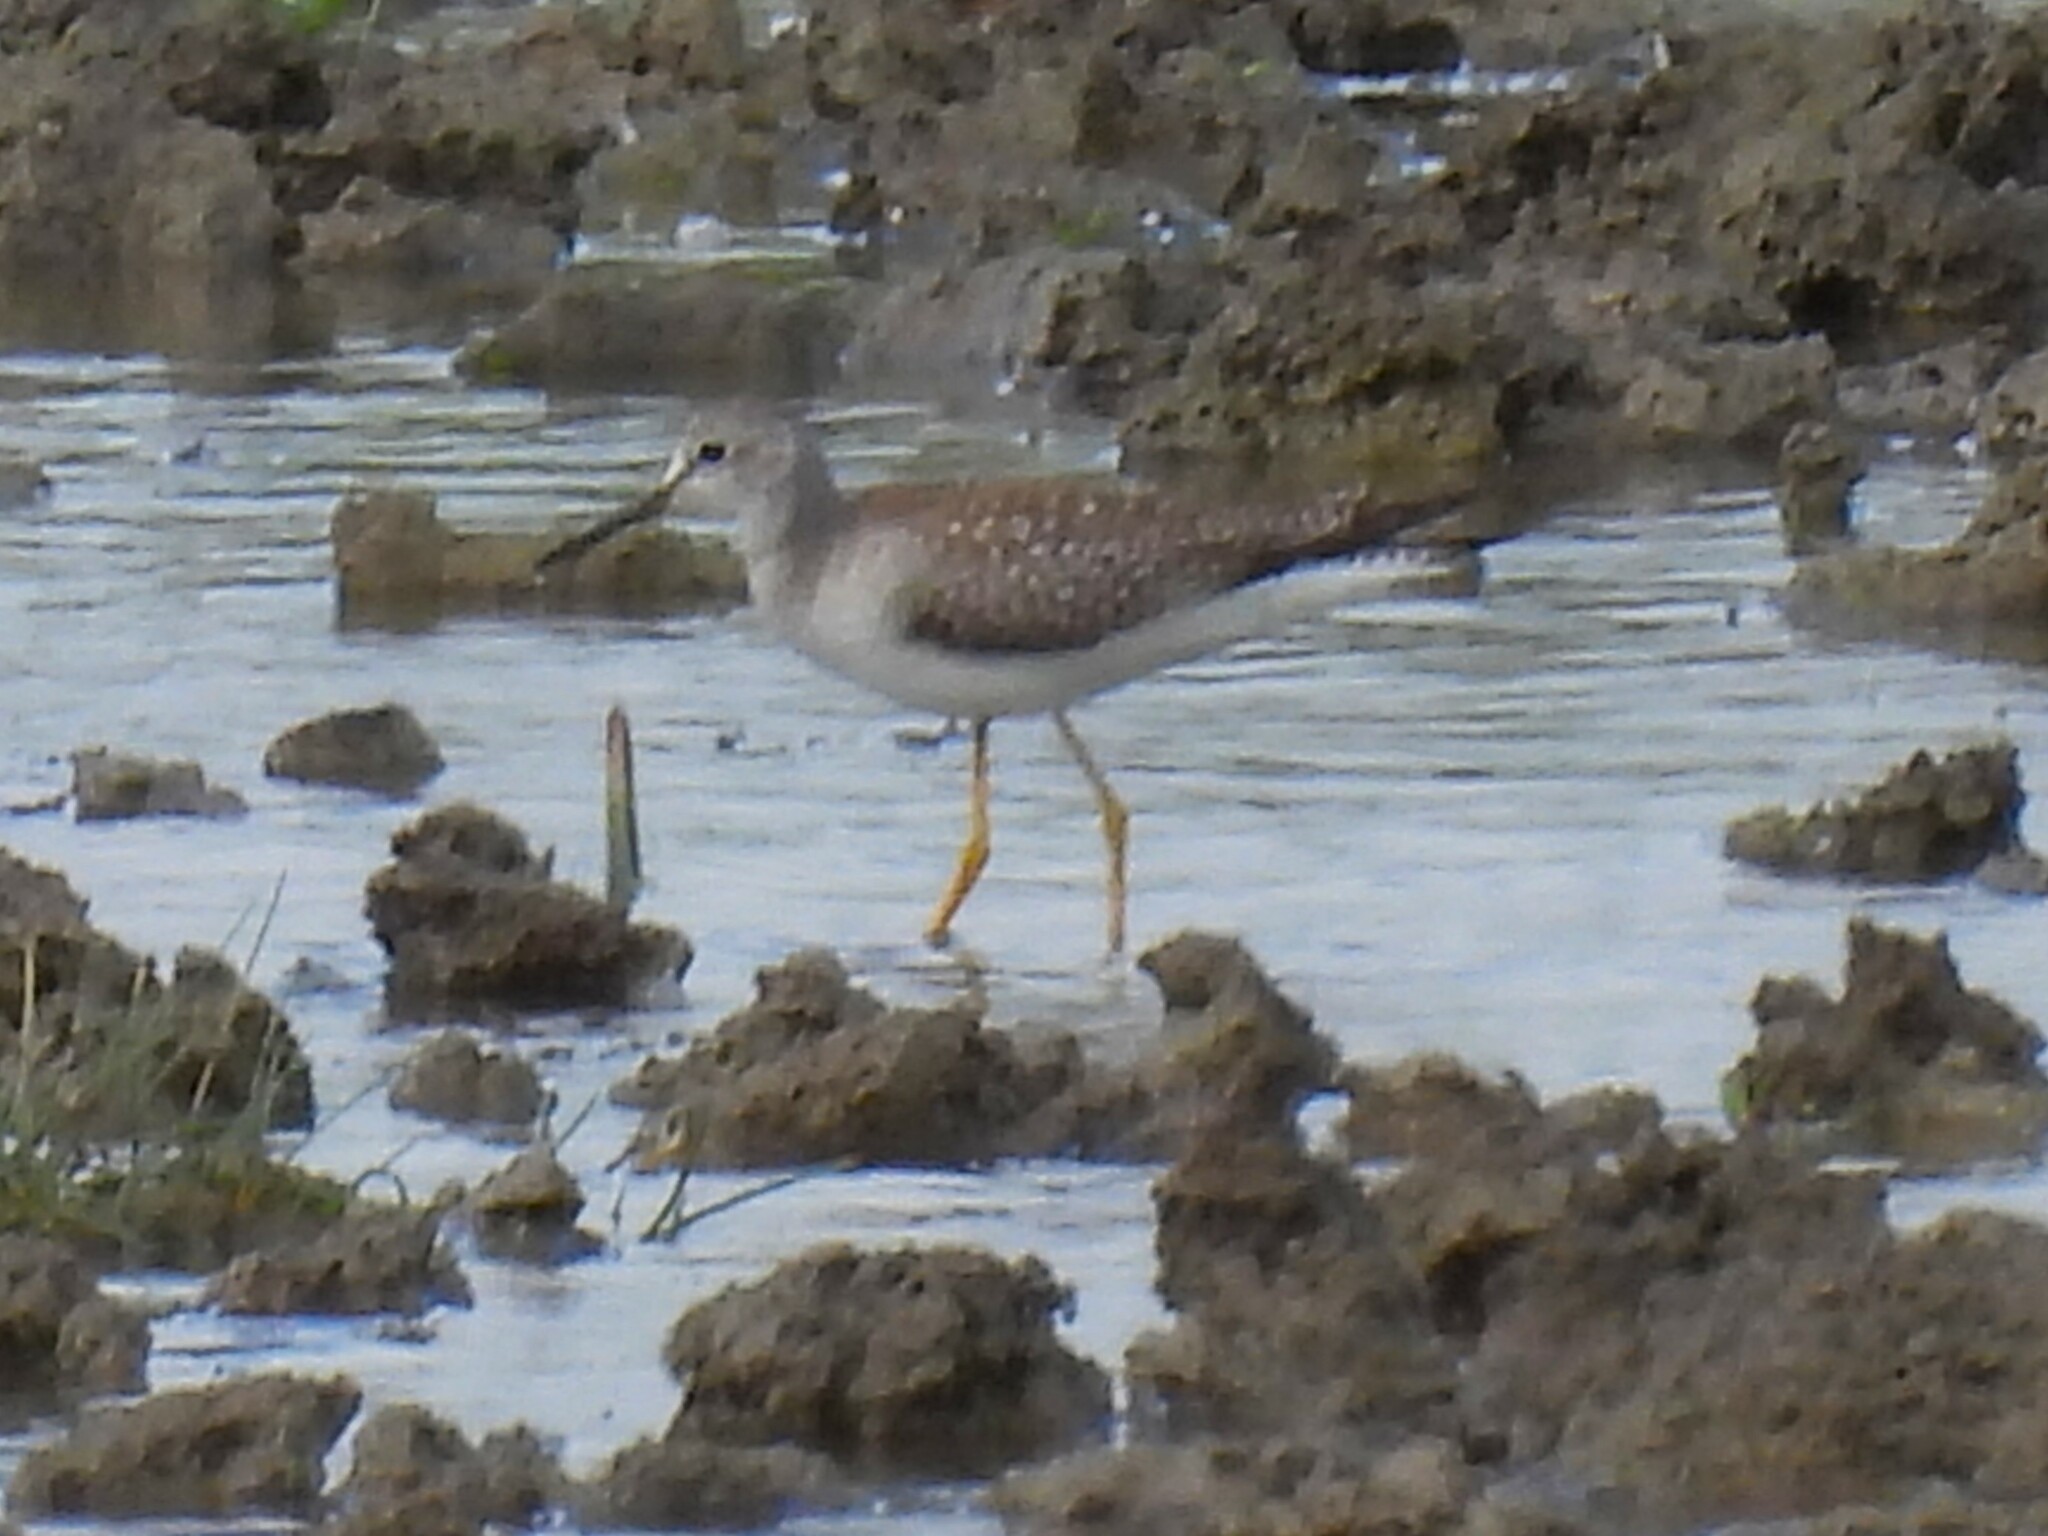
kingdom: Animalia
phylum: Chordata
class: Aves
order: Charadriiformes
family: Scolopacidae
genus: Tringa
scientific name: Tringa flavipes
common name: Lesser yellowlegs
